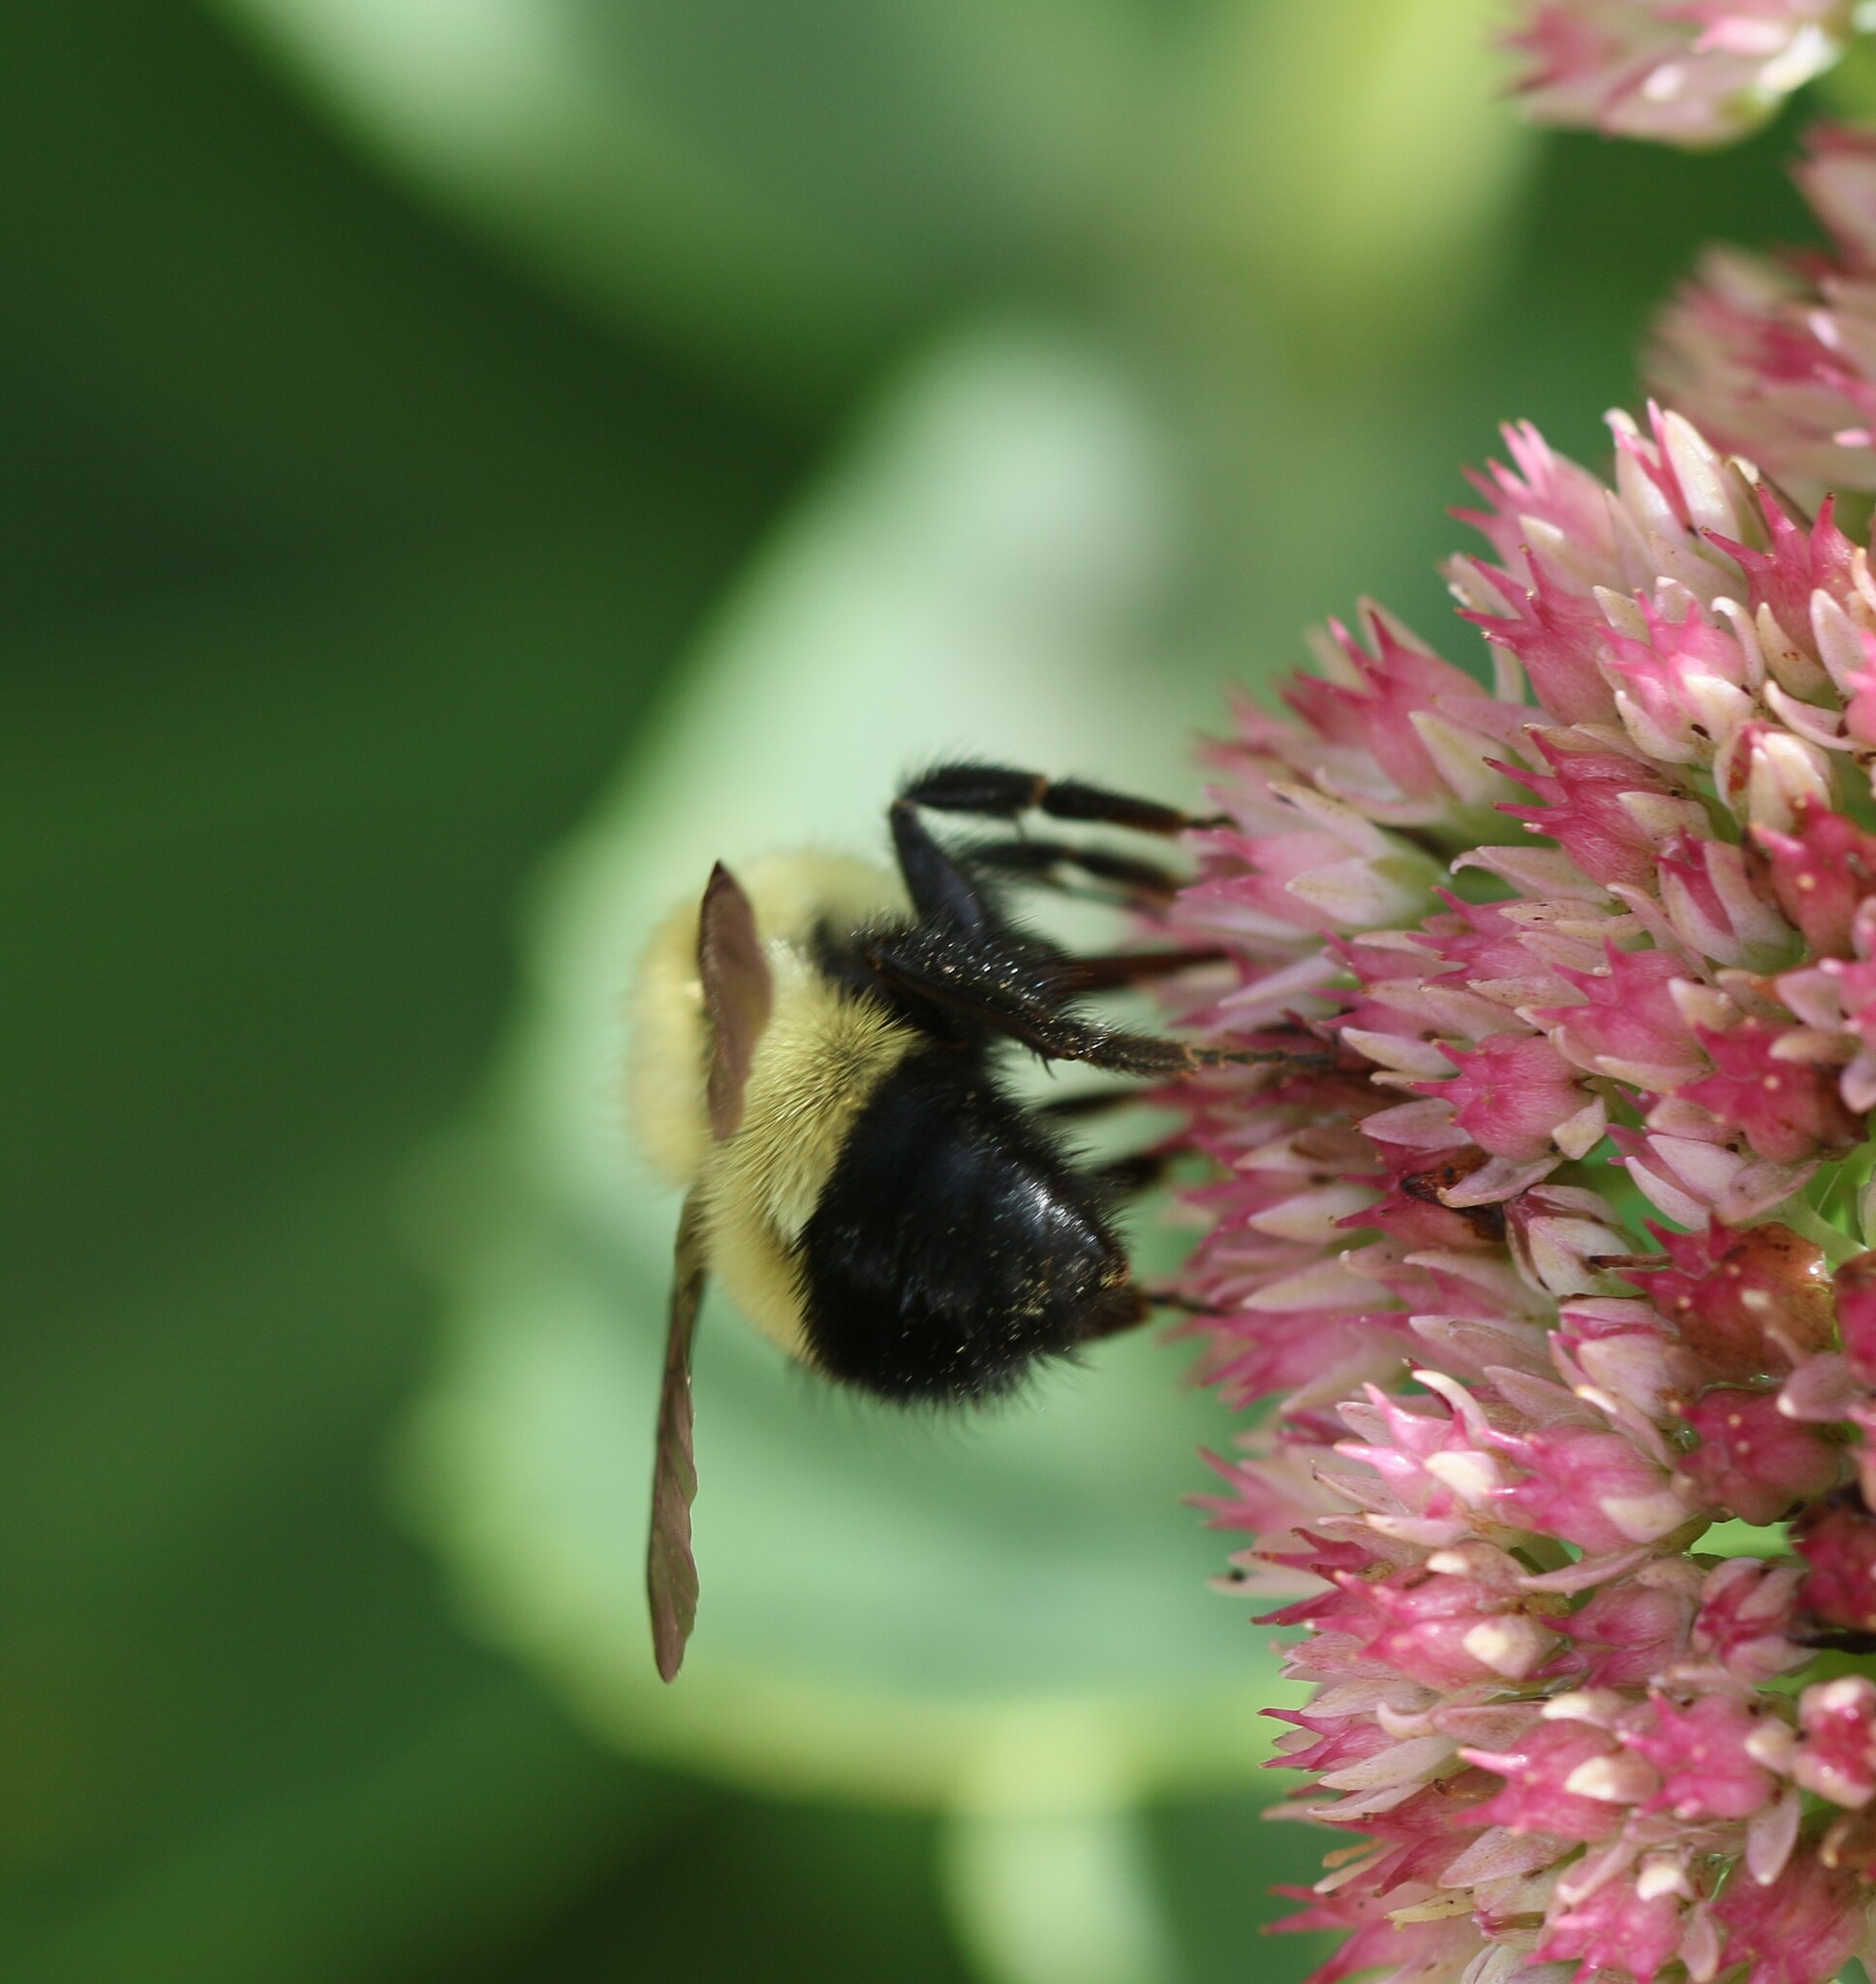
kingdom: Animalia
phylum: Arthropoda
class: Insecta
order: Hymenoptera
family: Apidae
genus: Bombus
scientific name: Bombus vagans
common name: Half-black bumble bee
